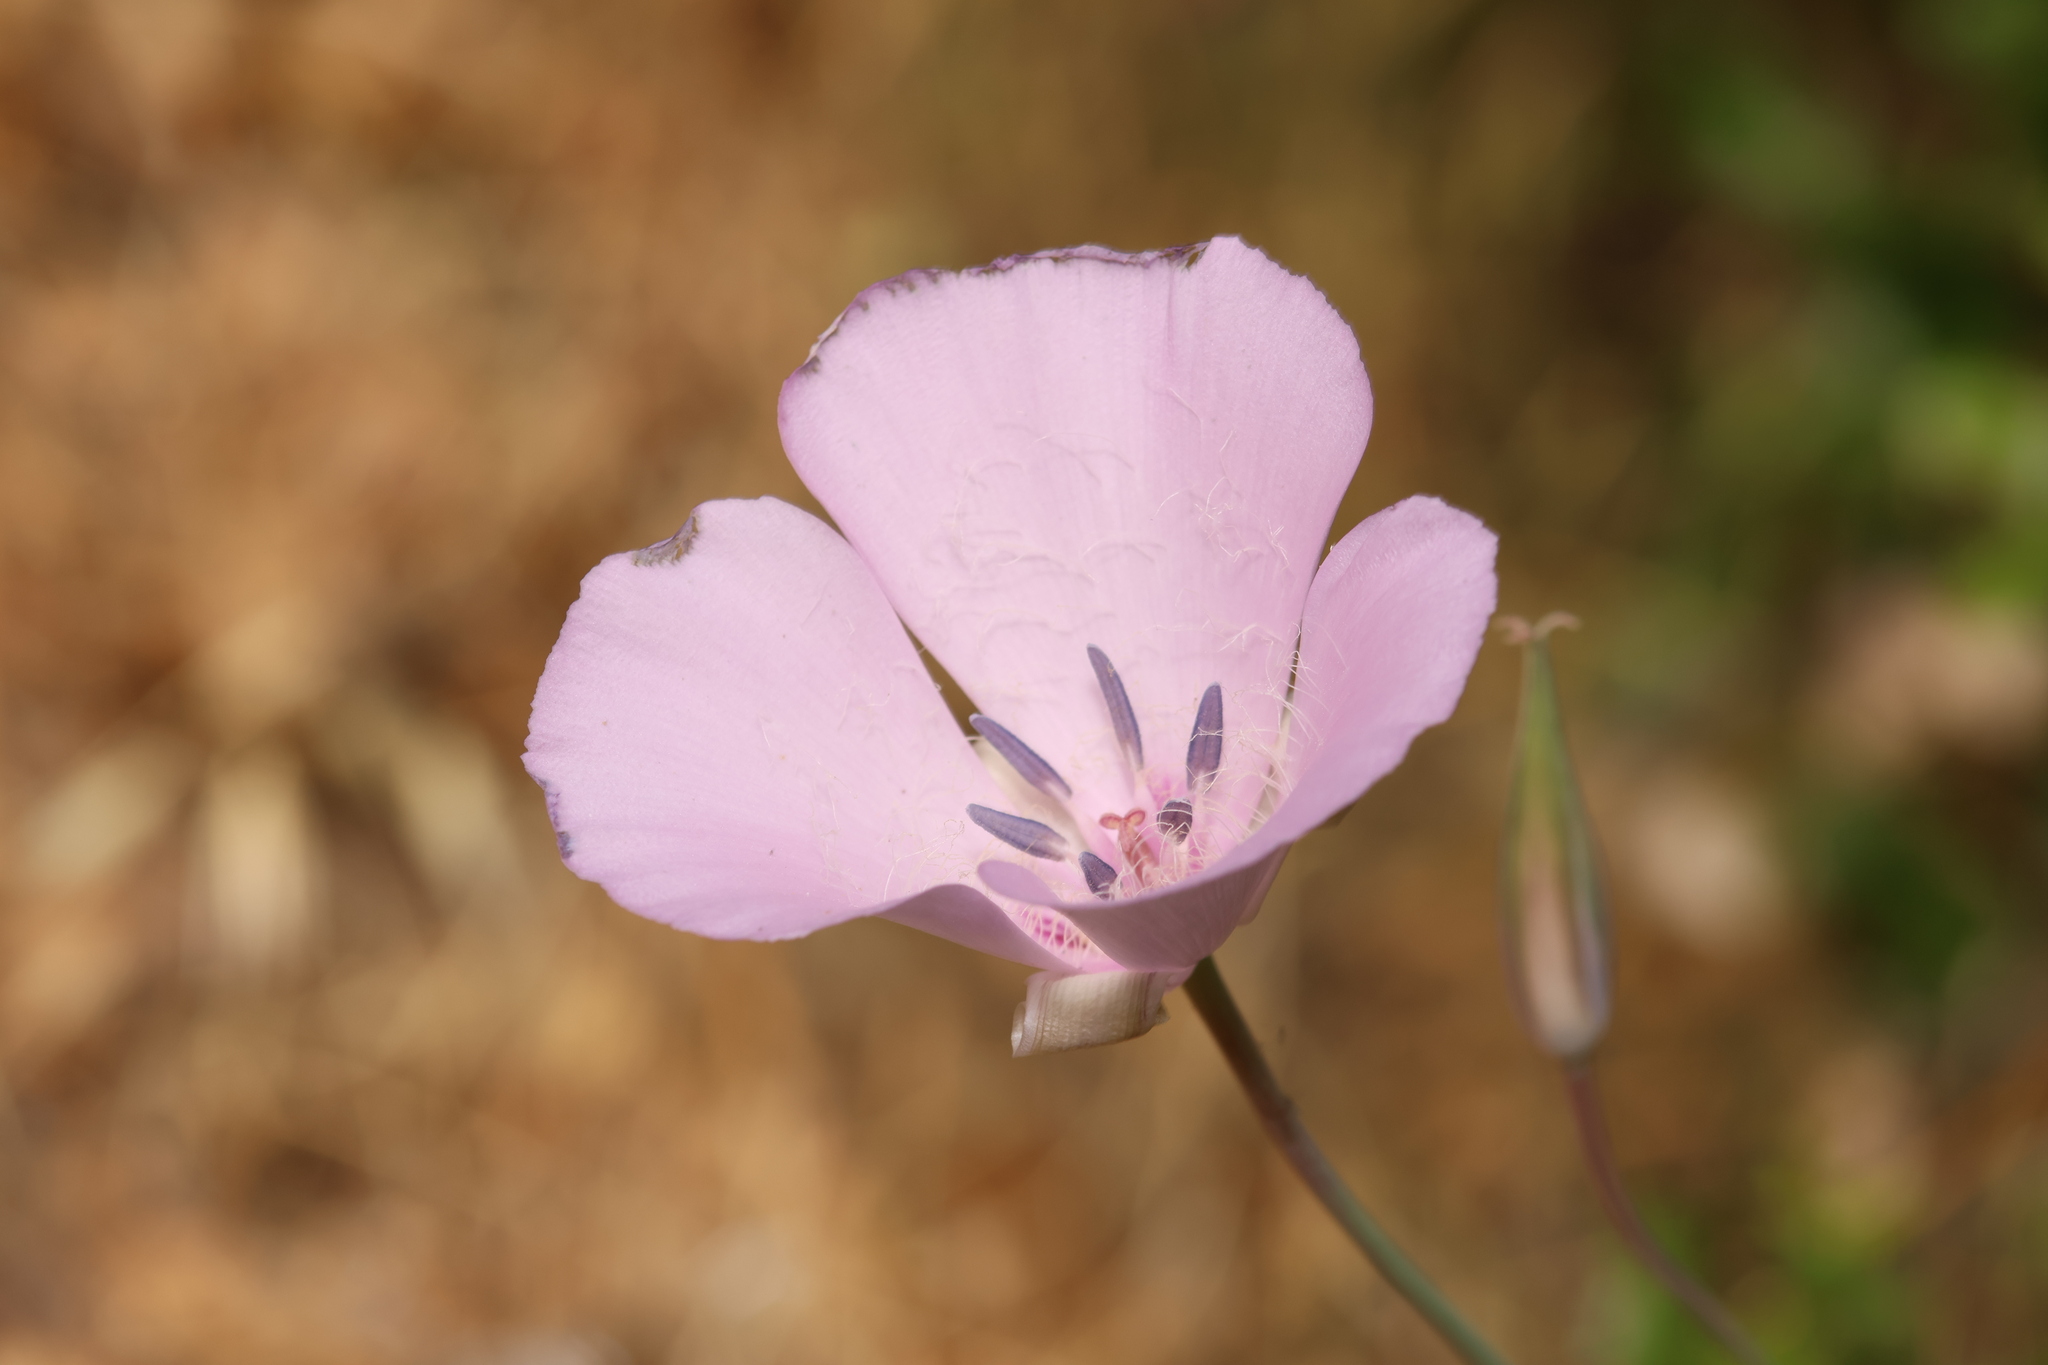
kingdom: Plantae
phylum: Tracheophyta
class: Liliopsida
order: Liliales
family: Liliaceae
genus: Calochortus
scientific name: Calochortus splendens
